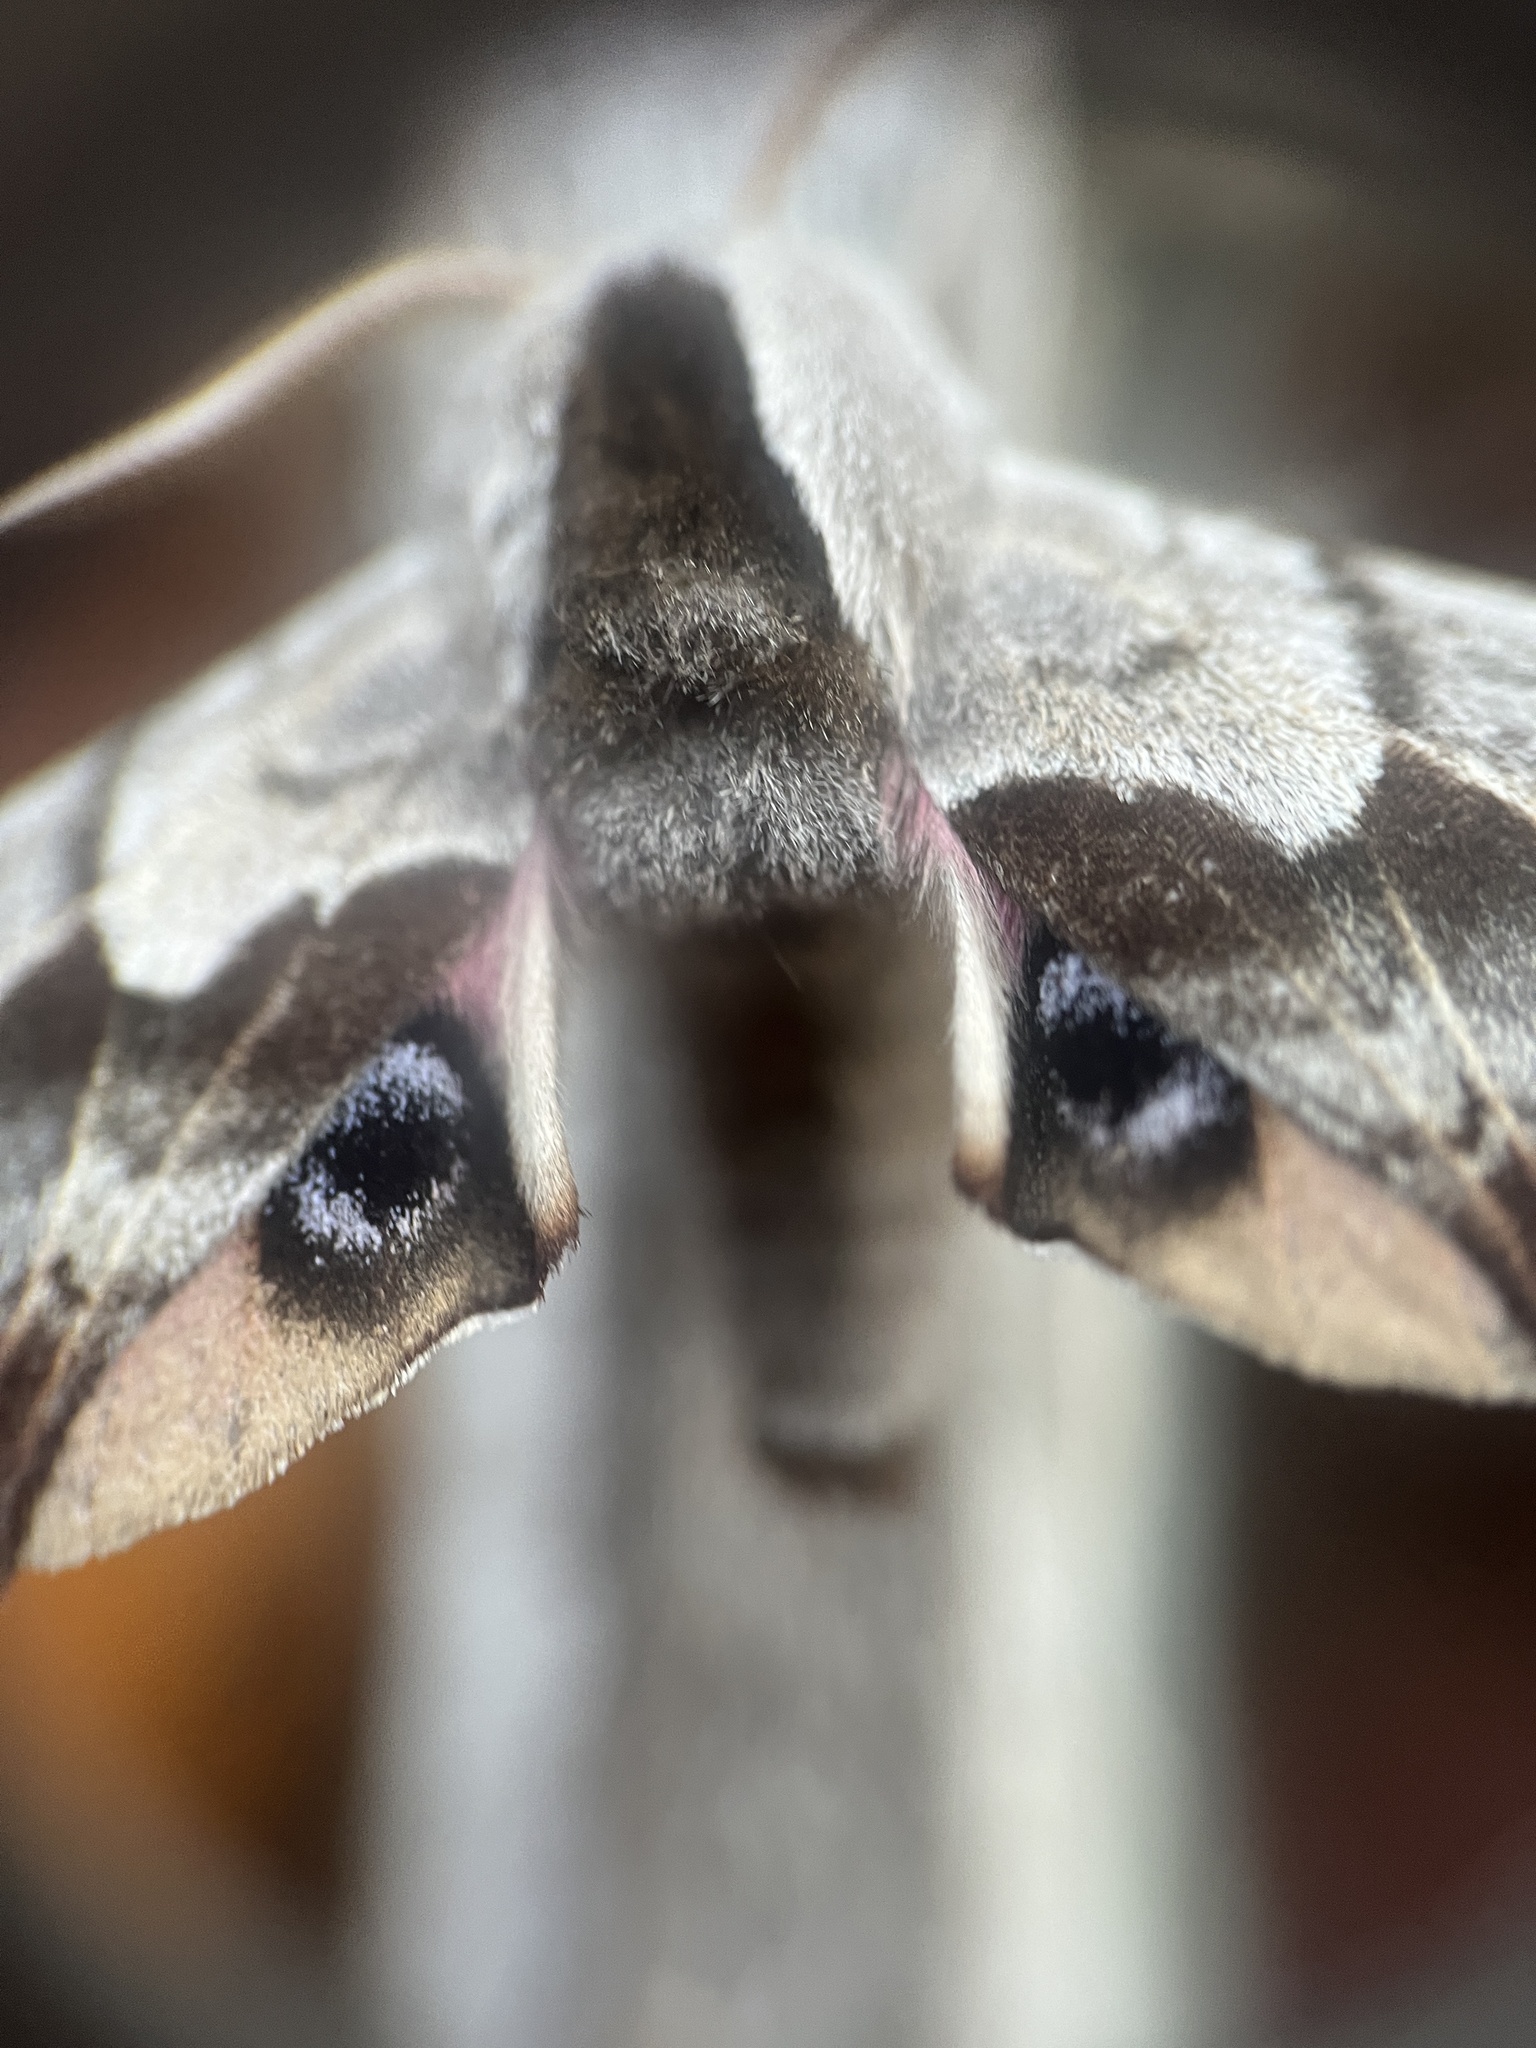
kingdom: Animalia
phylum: Arthropoda
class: Insecta
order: Lepidoptera
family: Sphingidae
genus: Smerinthus
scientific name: Smerinthus cerisyi
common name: Cerisy's sphinx moth
